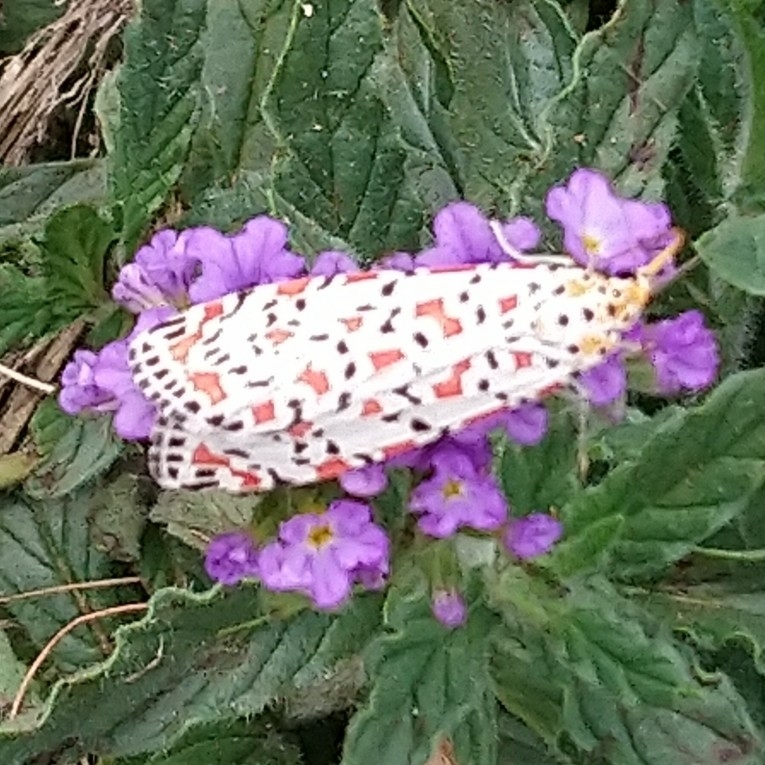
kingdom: Animalia
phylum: Arthropoda
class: Insecta
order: Lepidoptera
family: Erebidae
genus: Utetheisa
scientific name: Utetheisa pulchella
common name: Crimson speckled
